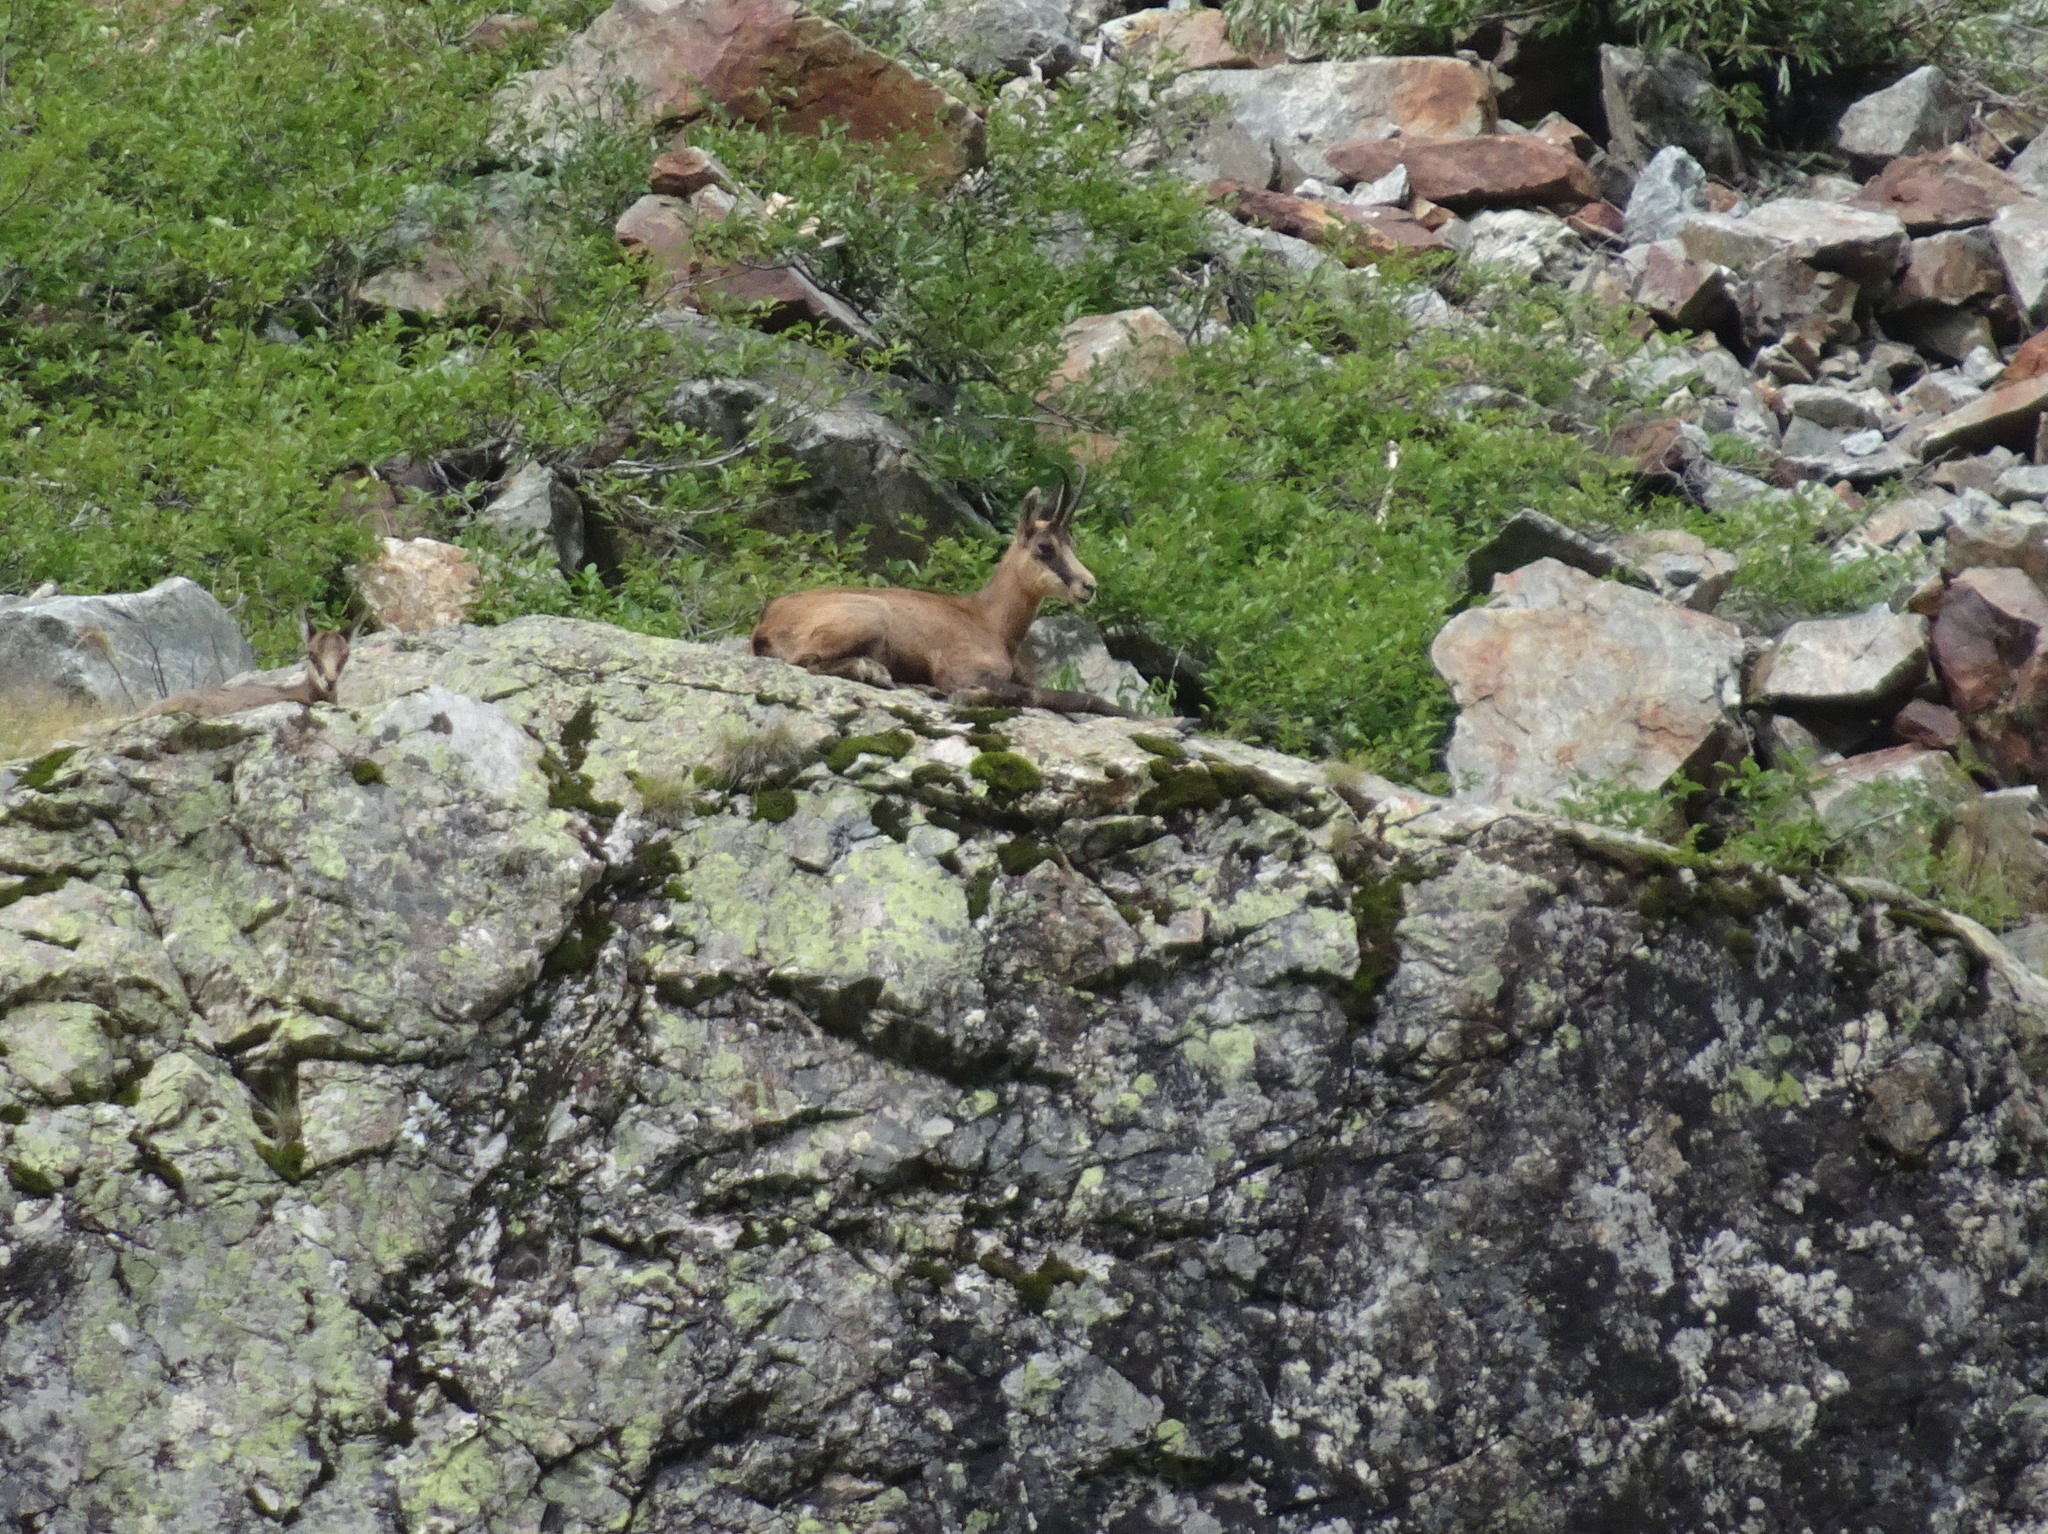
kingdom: Animalia
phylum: Chordata
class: Mammalia
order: Artiodactyla
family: Bovidae
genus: Rupicapra
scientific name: Rupicapra rupicapra
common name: Chamois
